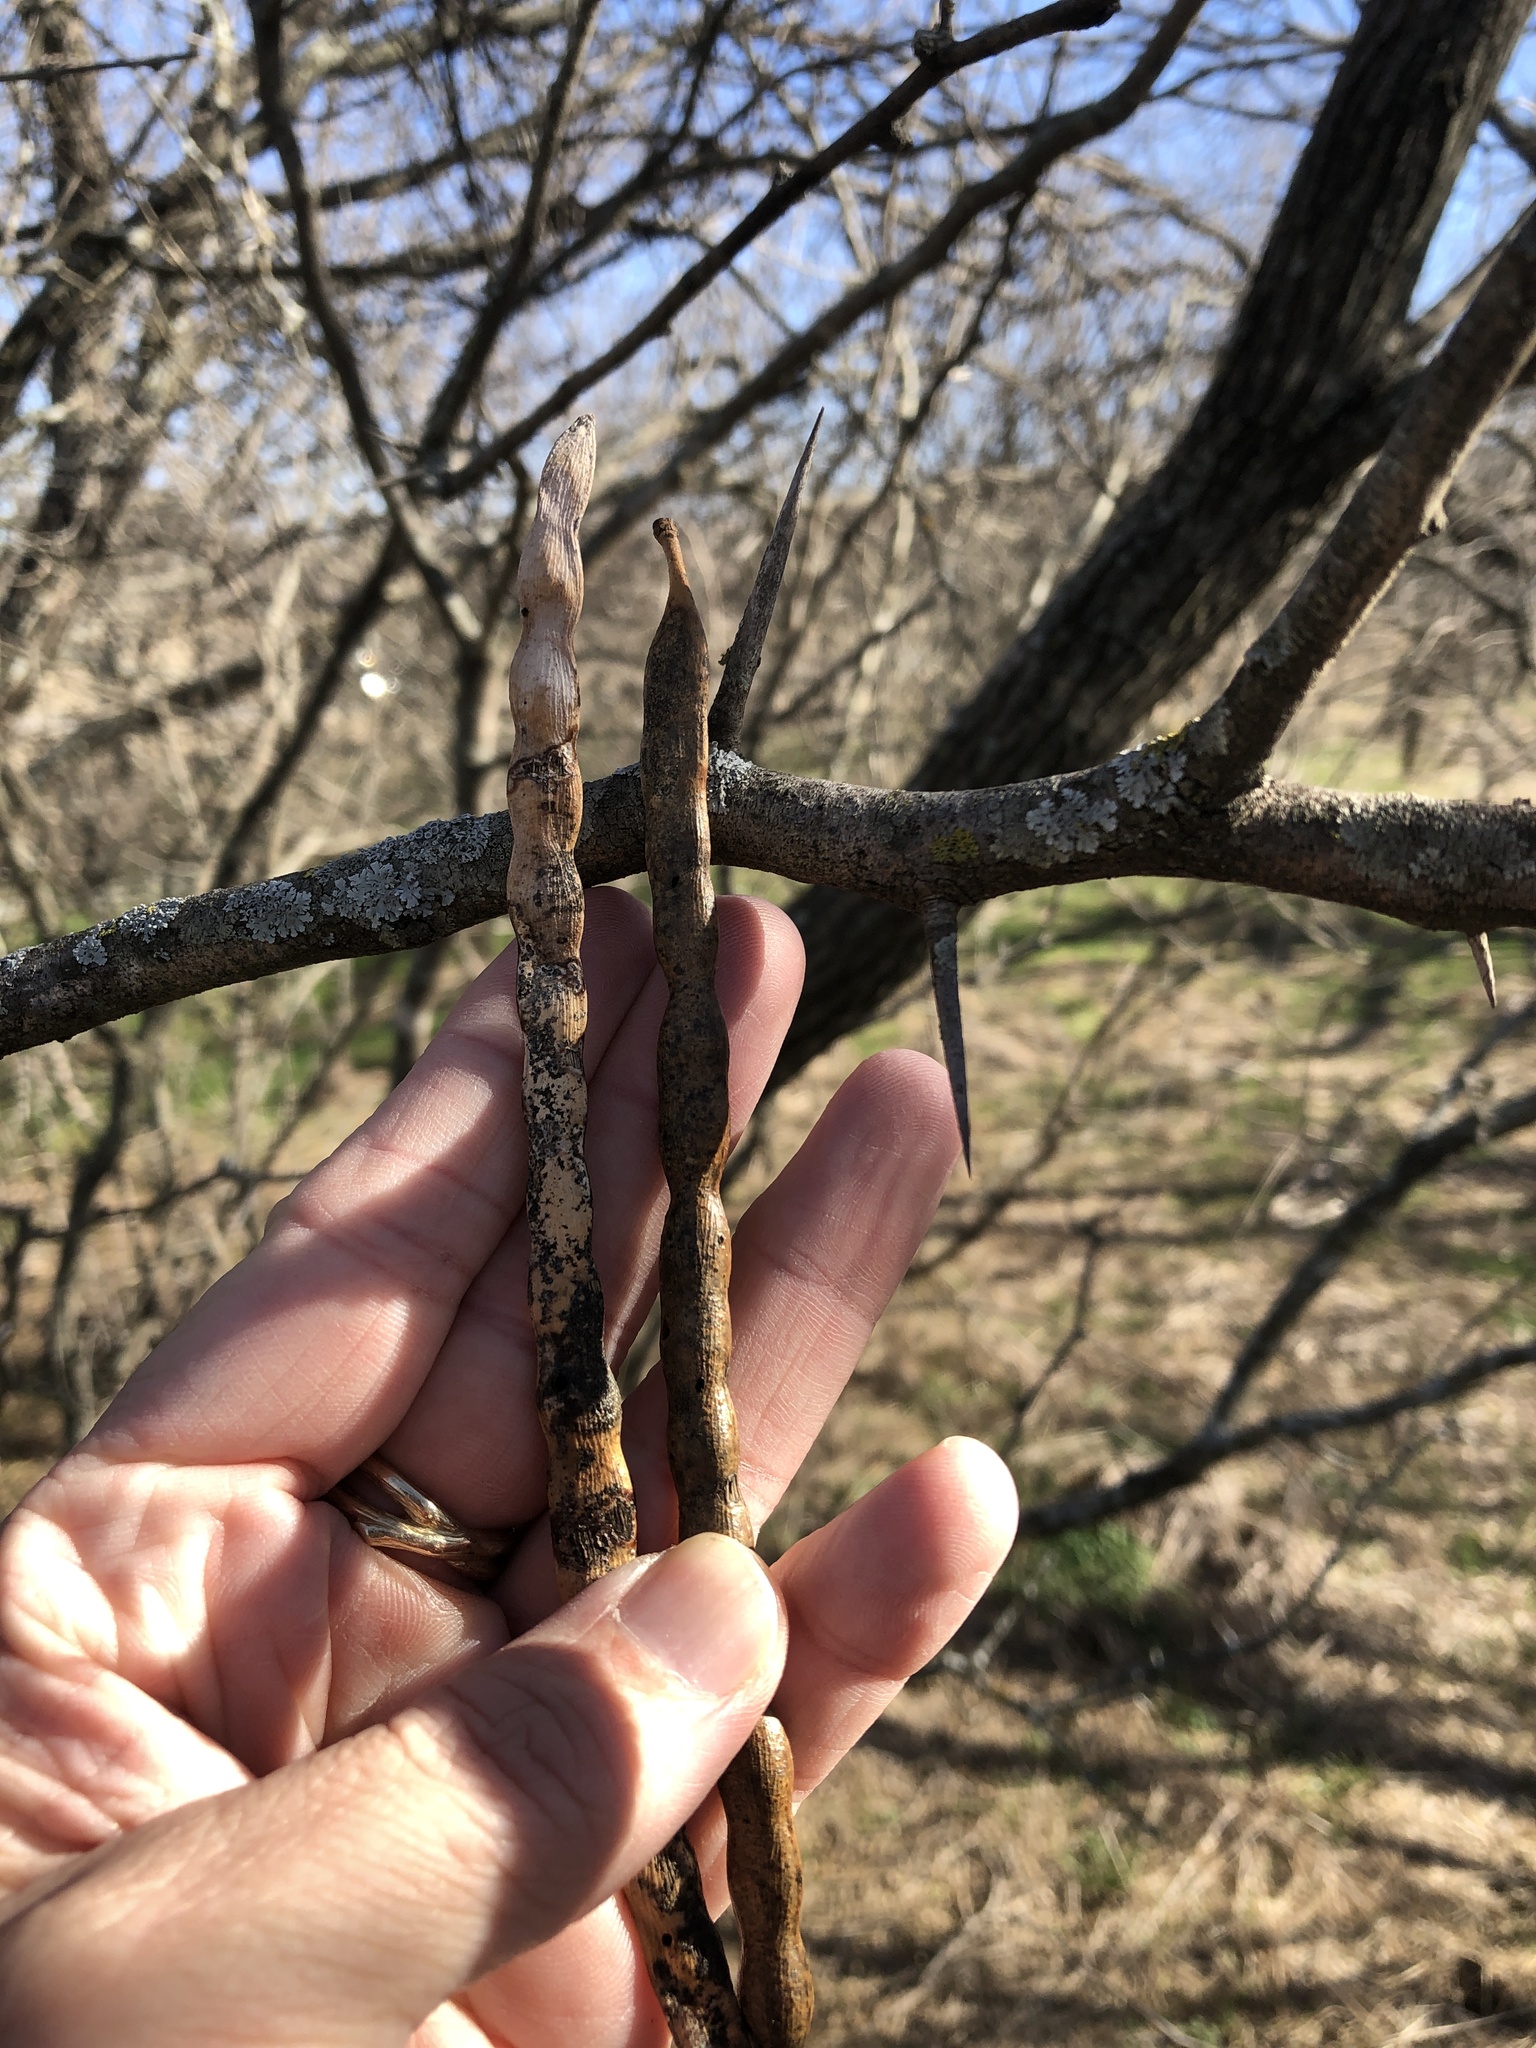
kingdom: Plantae
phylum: Tracheophyta
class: Magnoliopsida
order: Fabales
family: Fabaceae
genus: Prosopis
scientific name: Prosopis glandulosa
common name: Honey mesquite
